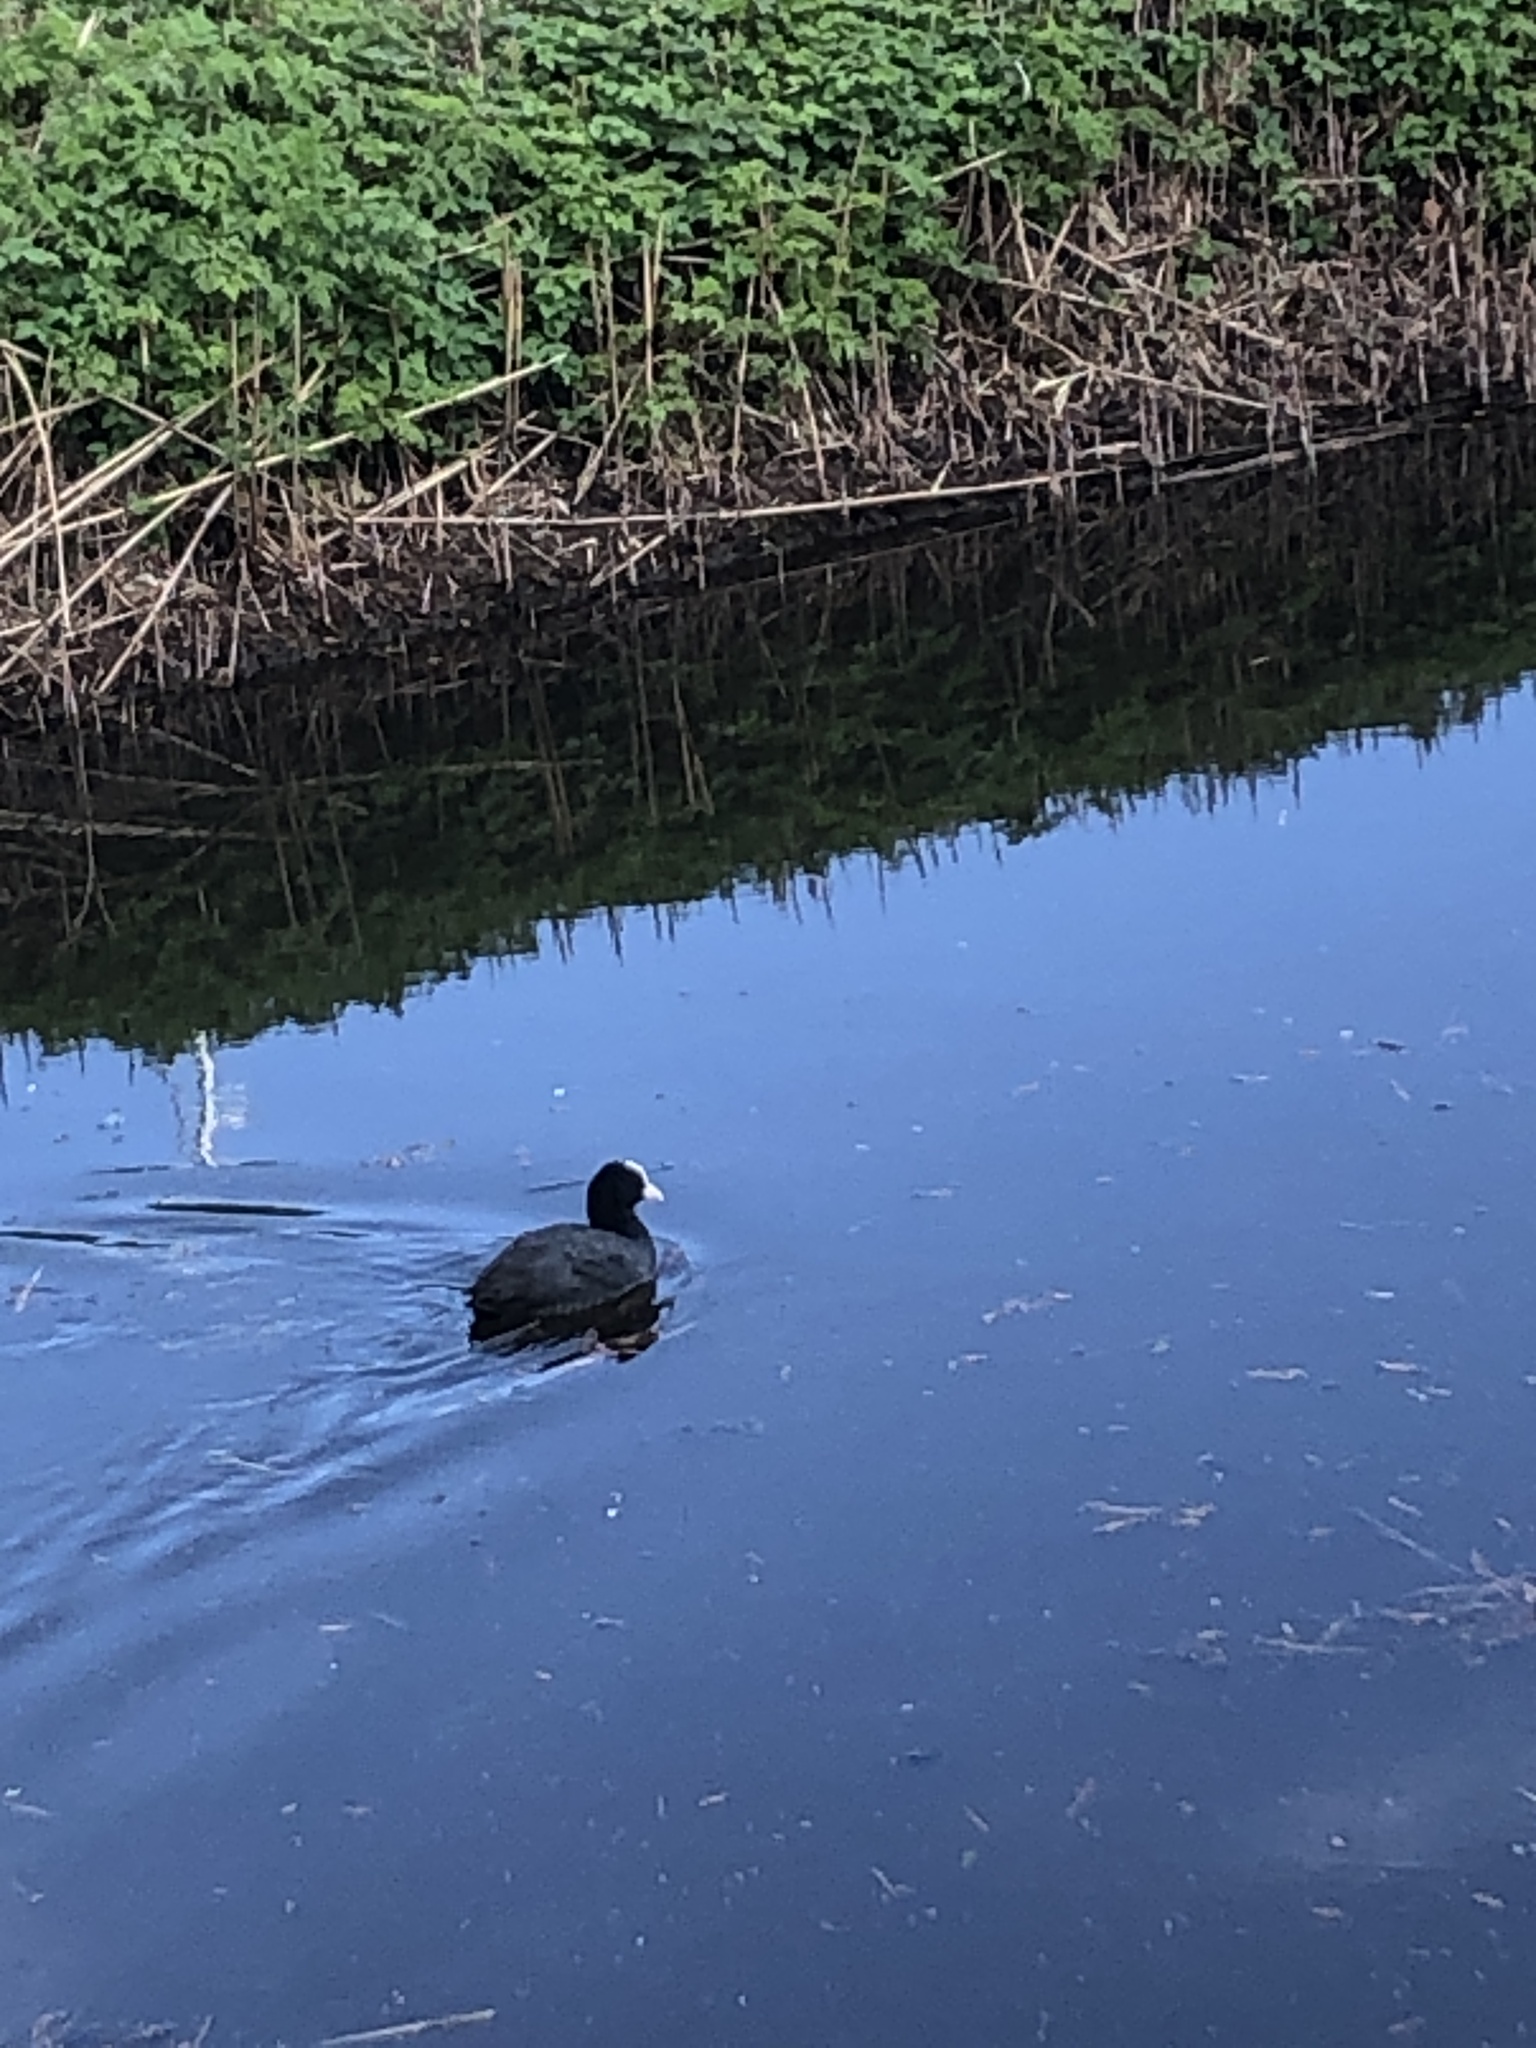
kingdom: Animalia
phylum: Chordata
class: Aves
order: Gruiformes
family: Rallidae
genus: Fulica
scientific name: Fulica atra
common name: Eurasian coot
